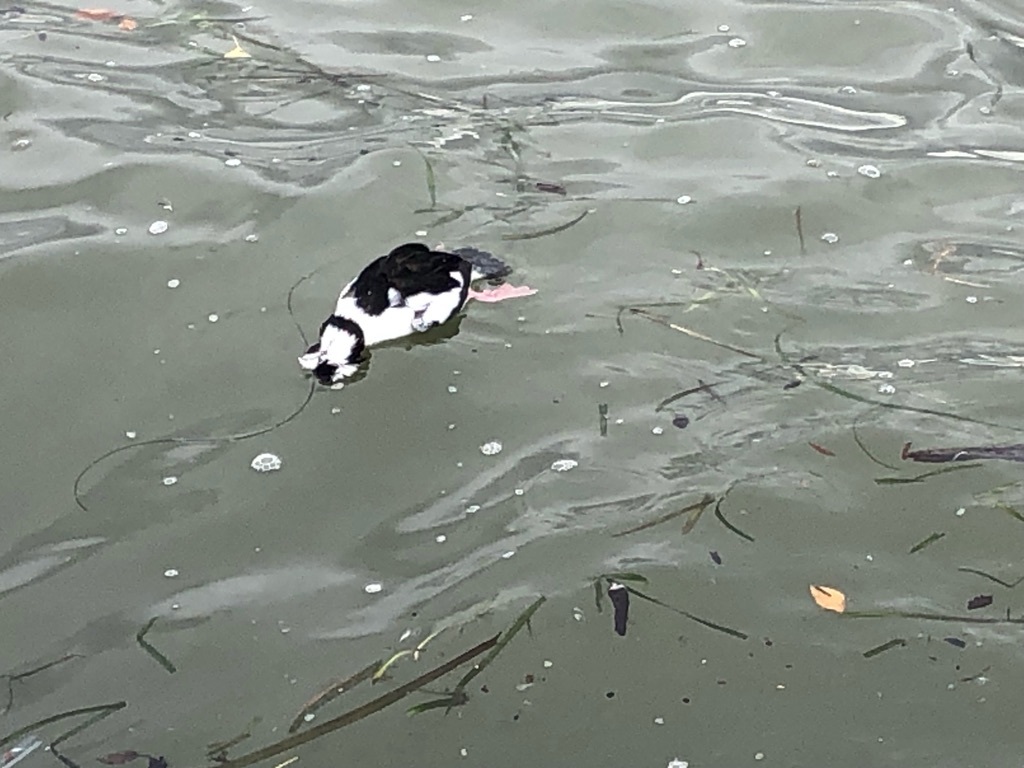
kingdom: Animalia
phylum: Chordata
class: Aves
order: Anseriformes
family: Anatidae
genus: Bucephala
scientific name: Bucephala albeola
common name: Bufflehead
